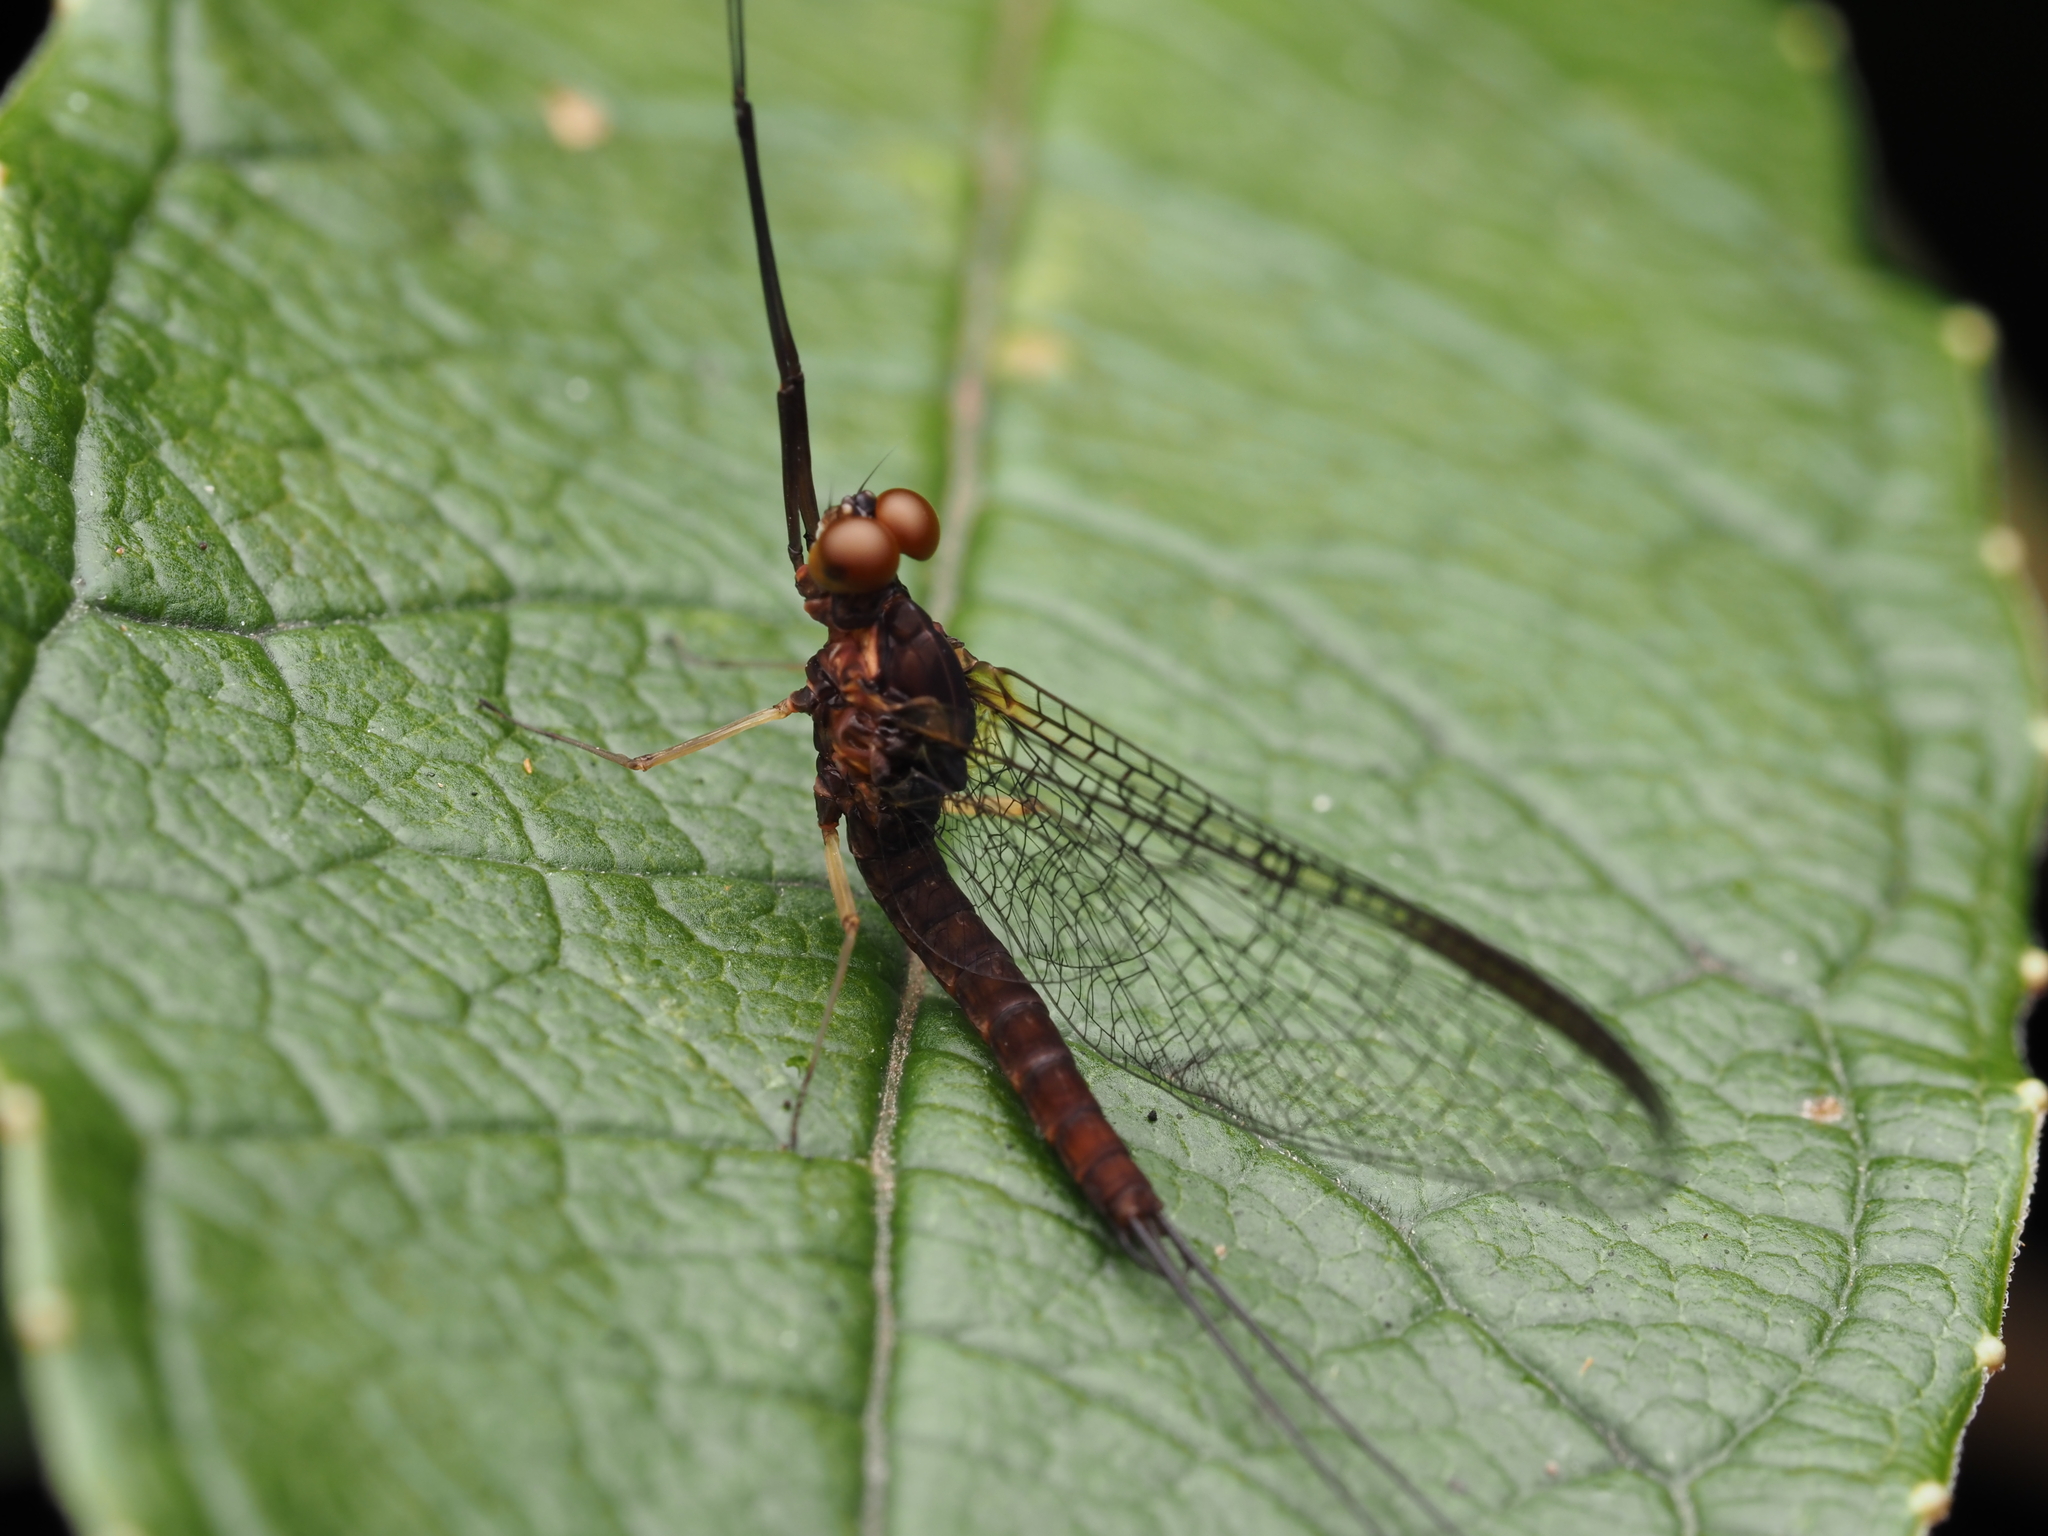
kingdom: Animalia
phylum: Arthropoda
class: Insecta
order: Ephemeroptera
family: Coloburiscidae
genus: Coloburiscus
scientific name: Coloburiscus humeralis
